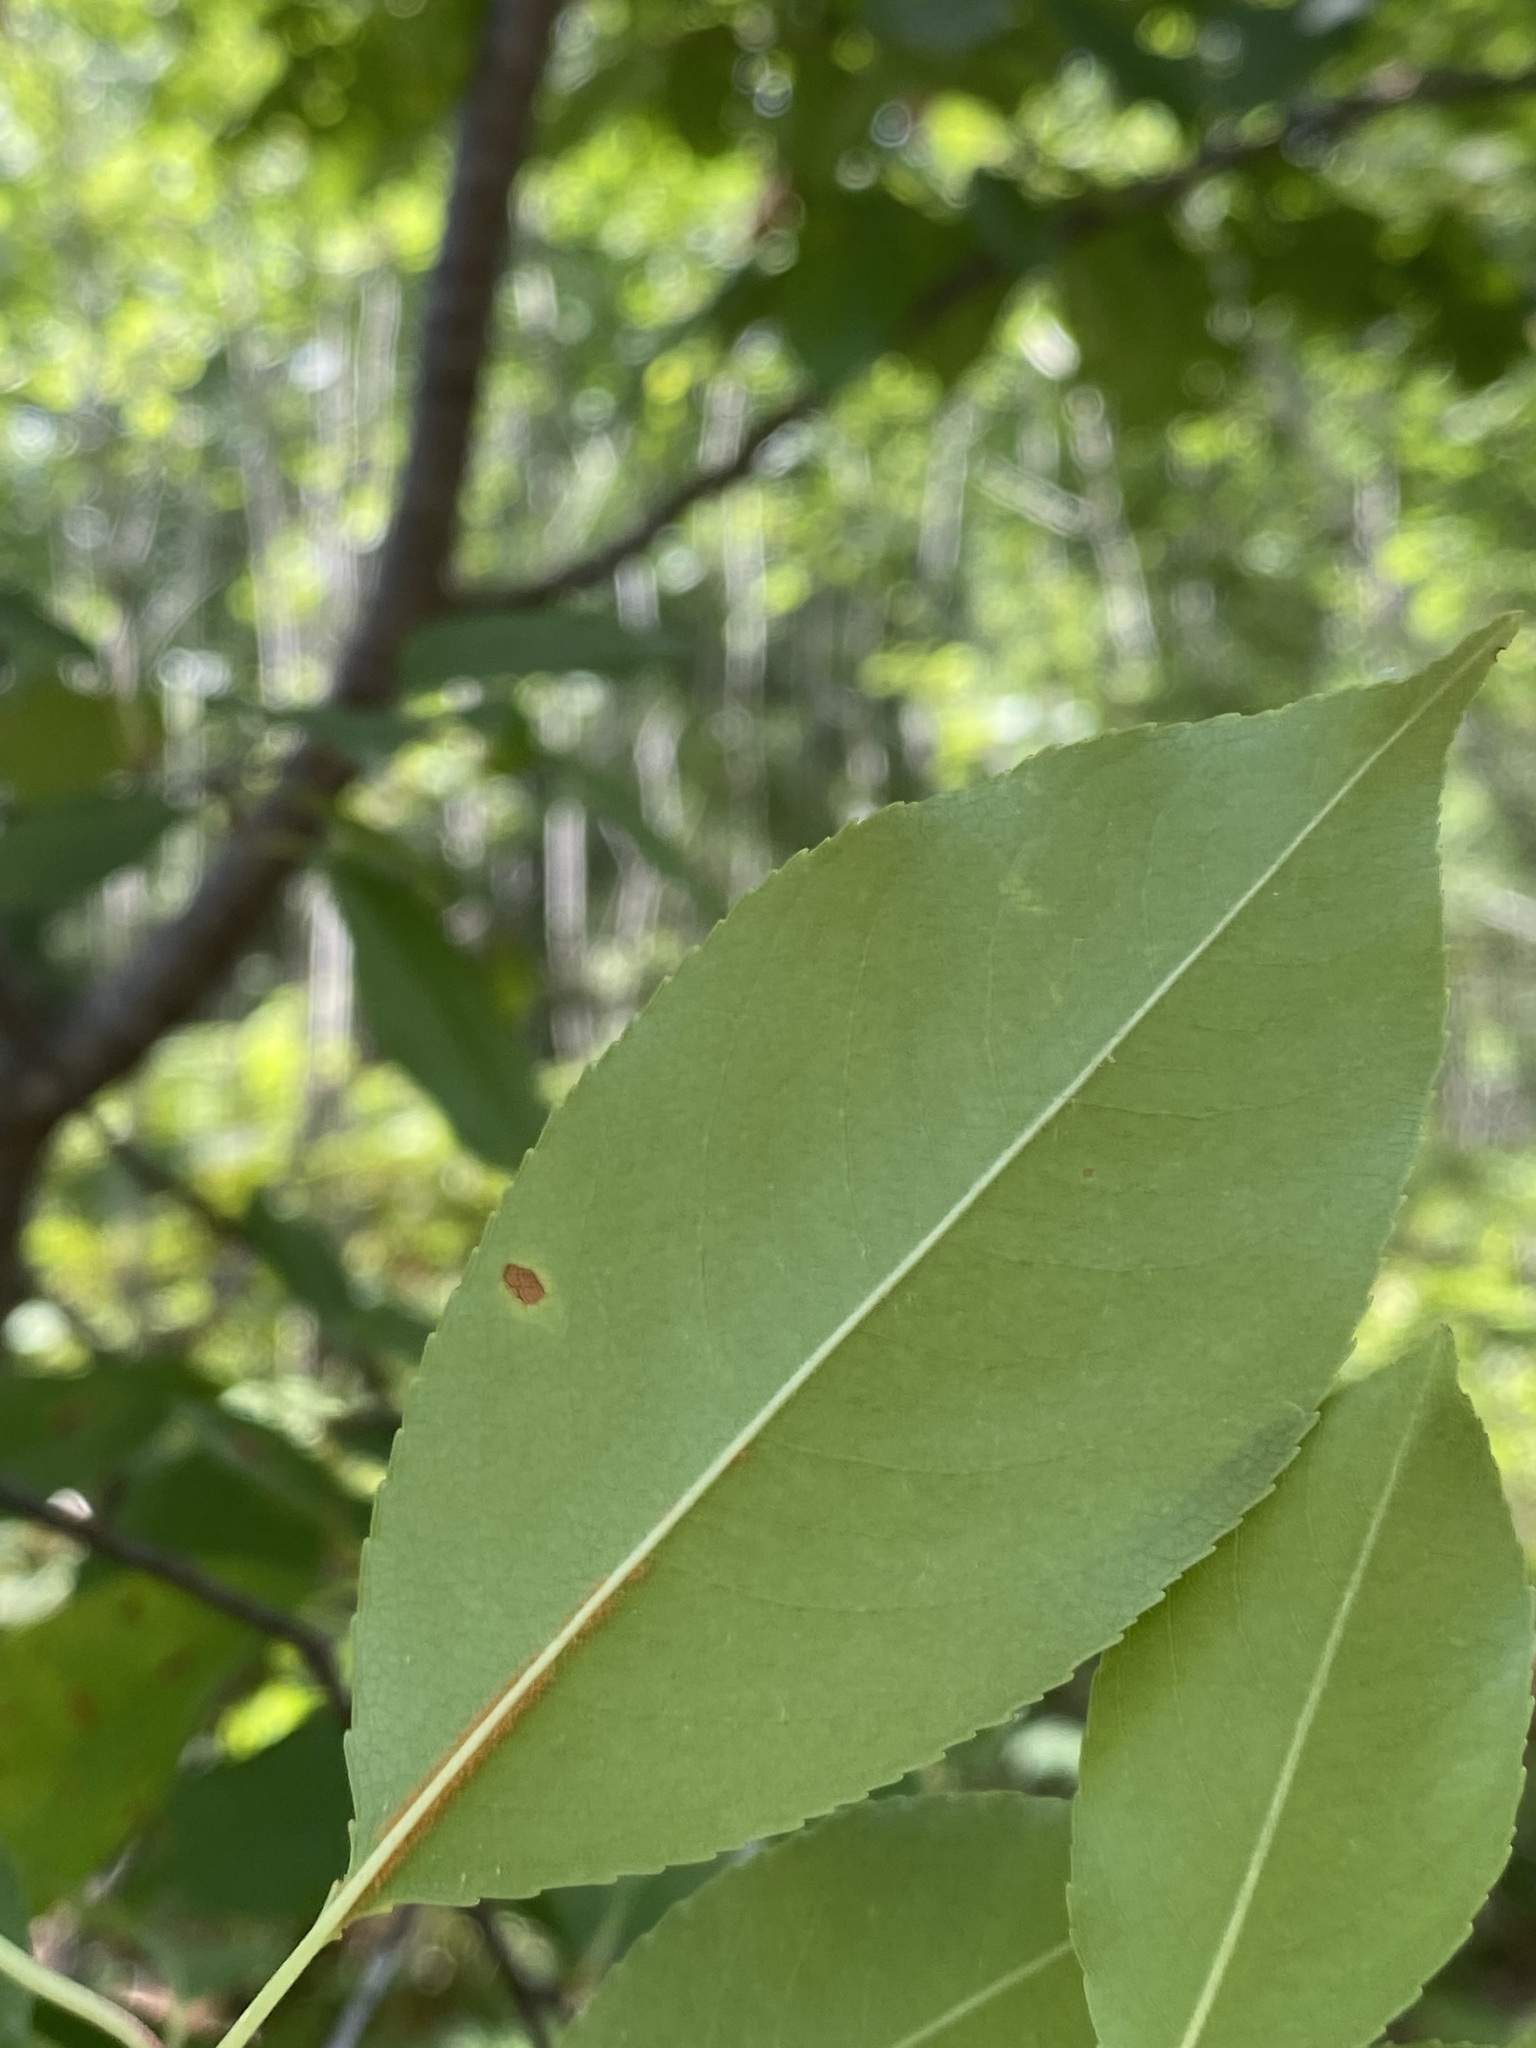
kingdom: Plantae
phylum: Tracheophyta
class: Magnoliopsida
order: Rosales
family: Rosaceae
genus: Prunus
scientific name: Prunus serotina
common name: Black cherry
